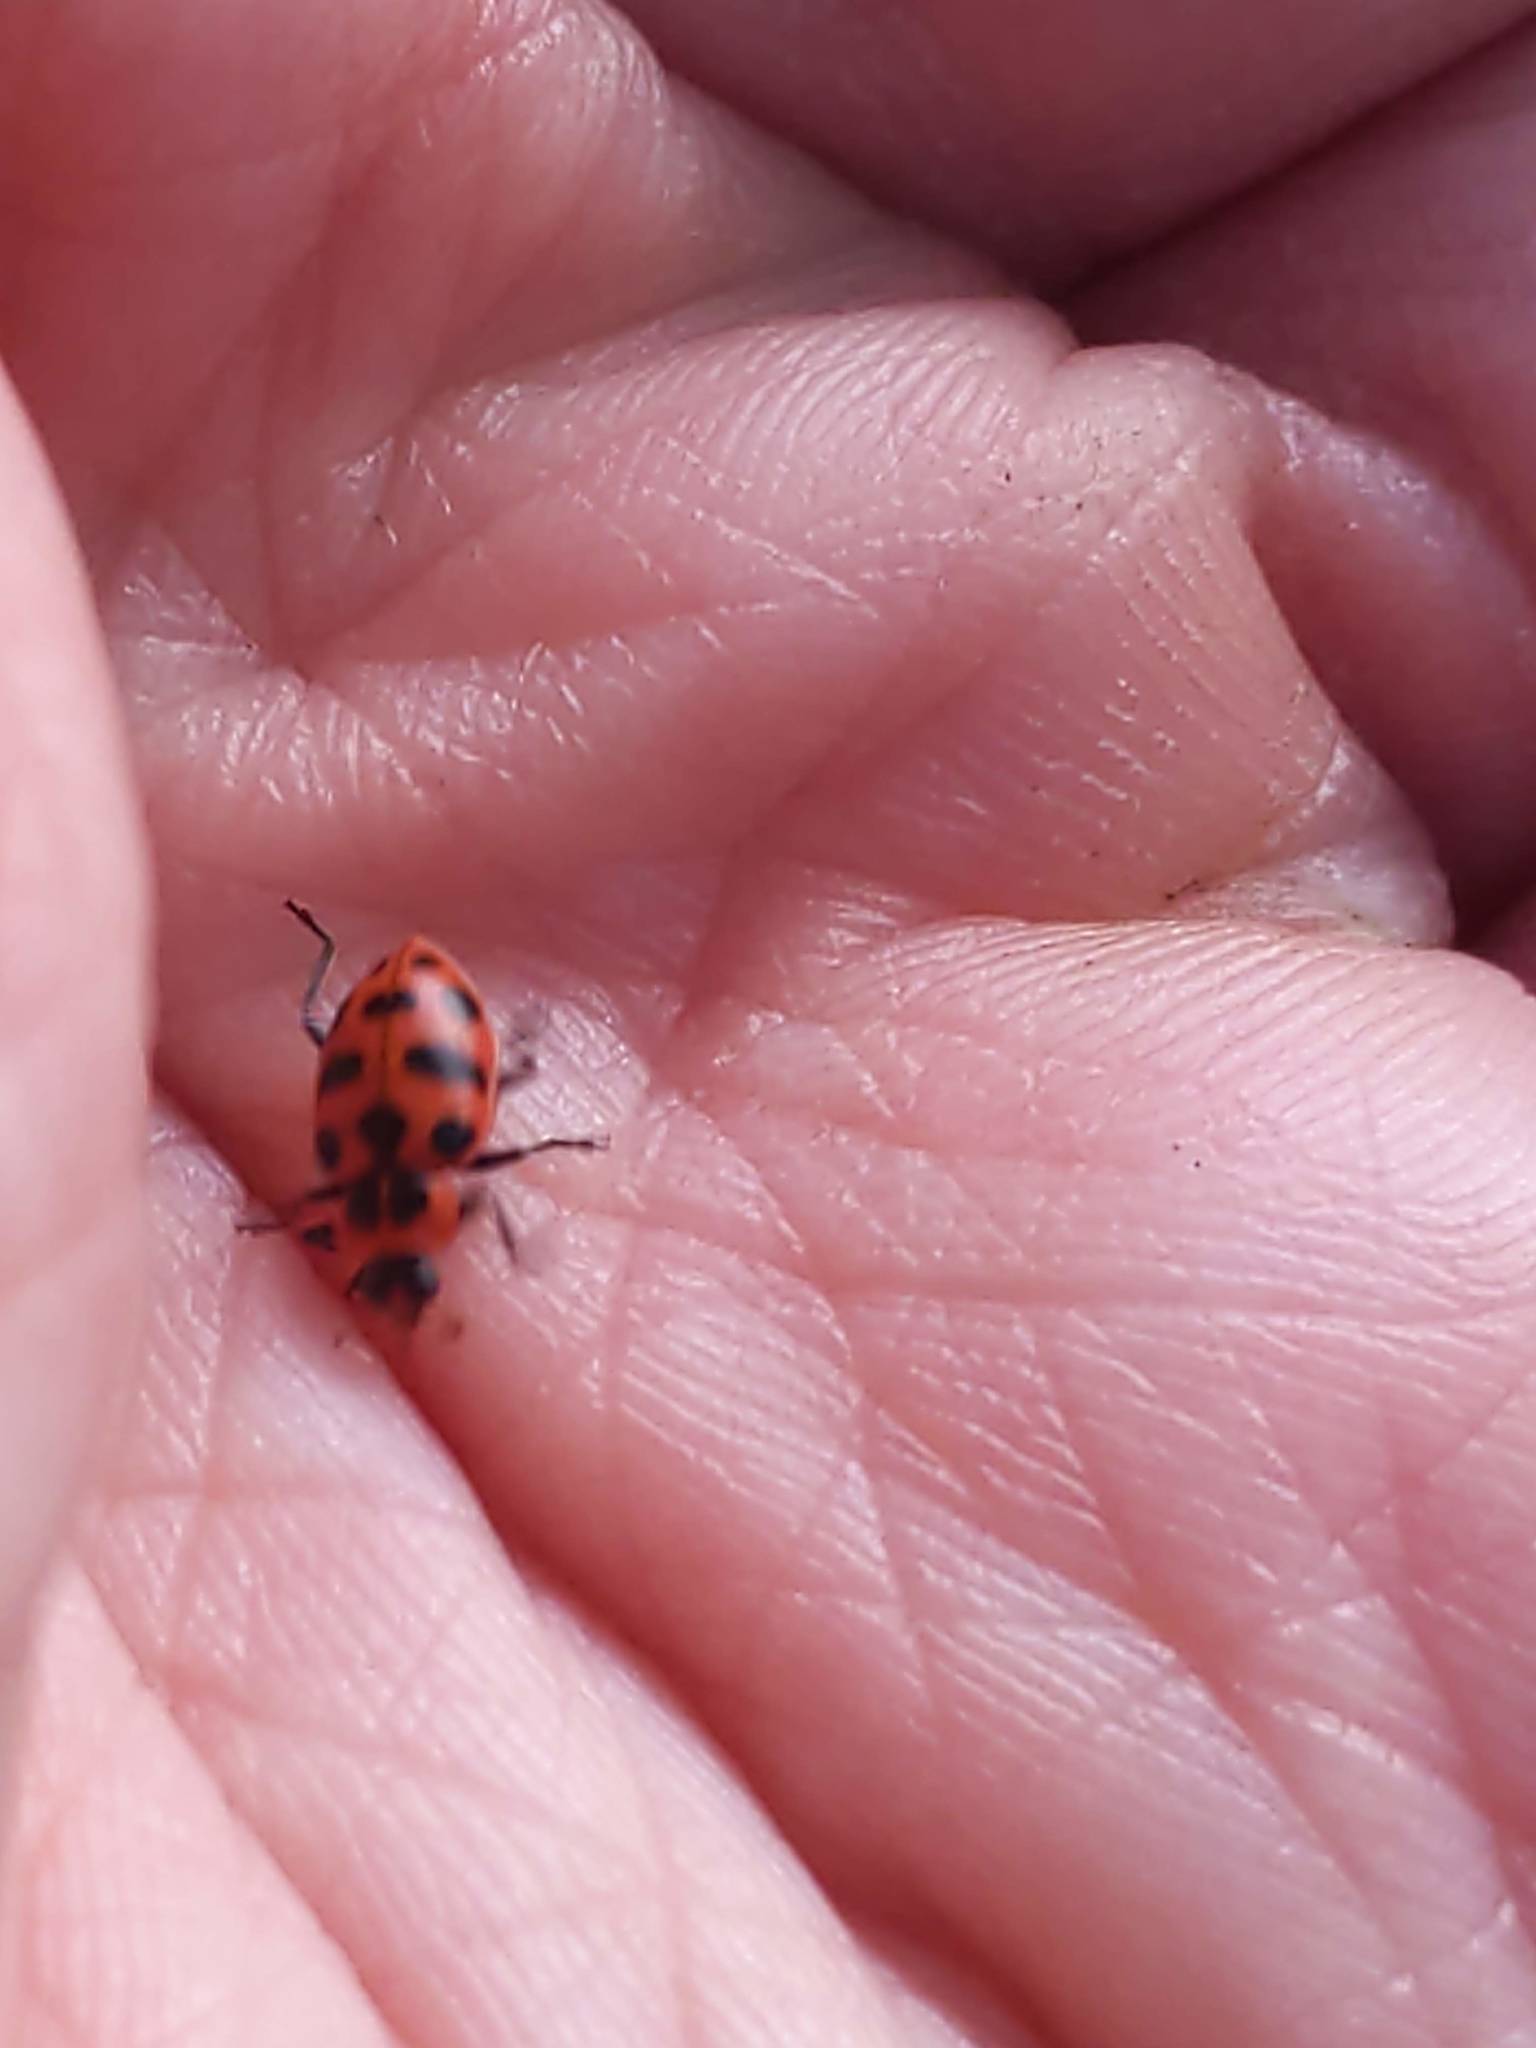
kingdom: Animalia
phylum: Arthropoda
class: Insecta
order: Coleoptera
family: Coccinellidae
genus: Coleomegilla
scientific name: Coleomegilla maculata
